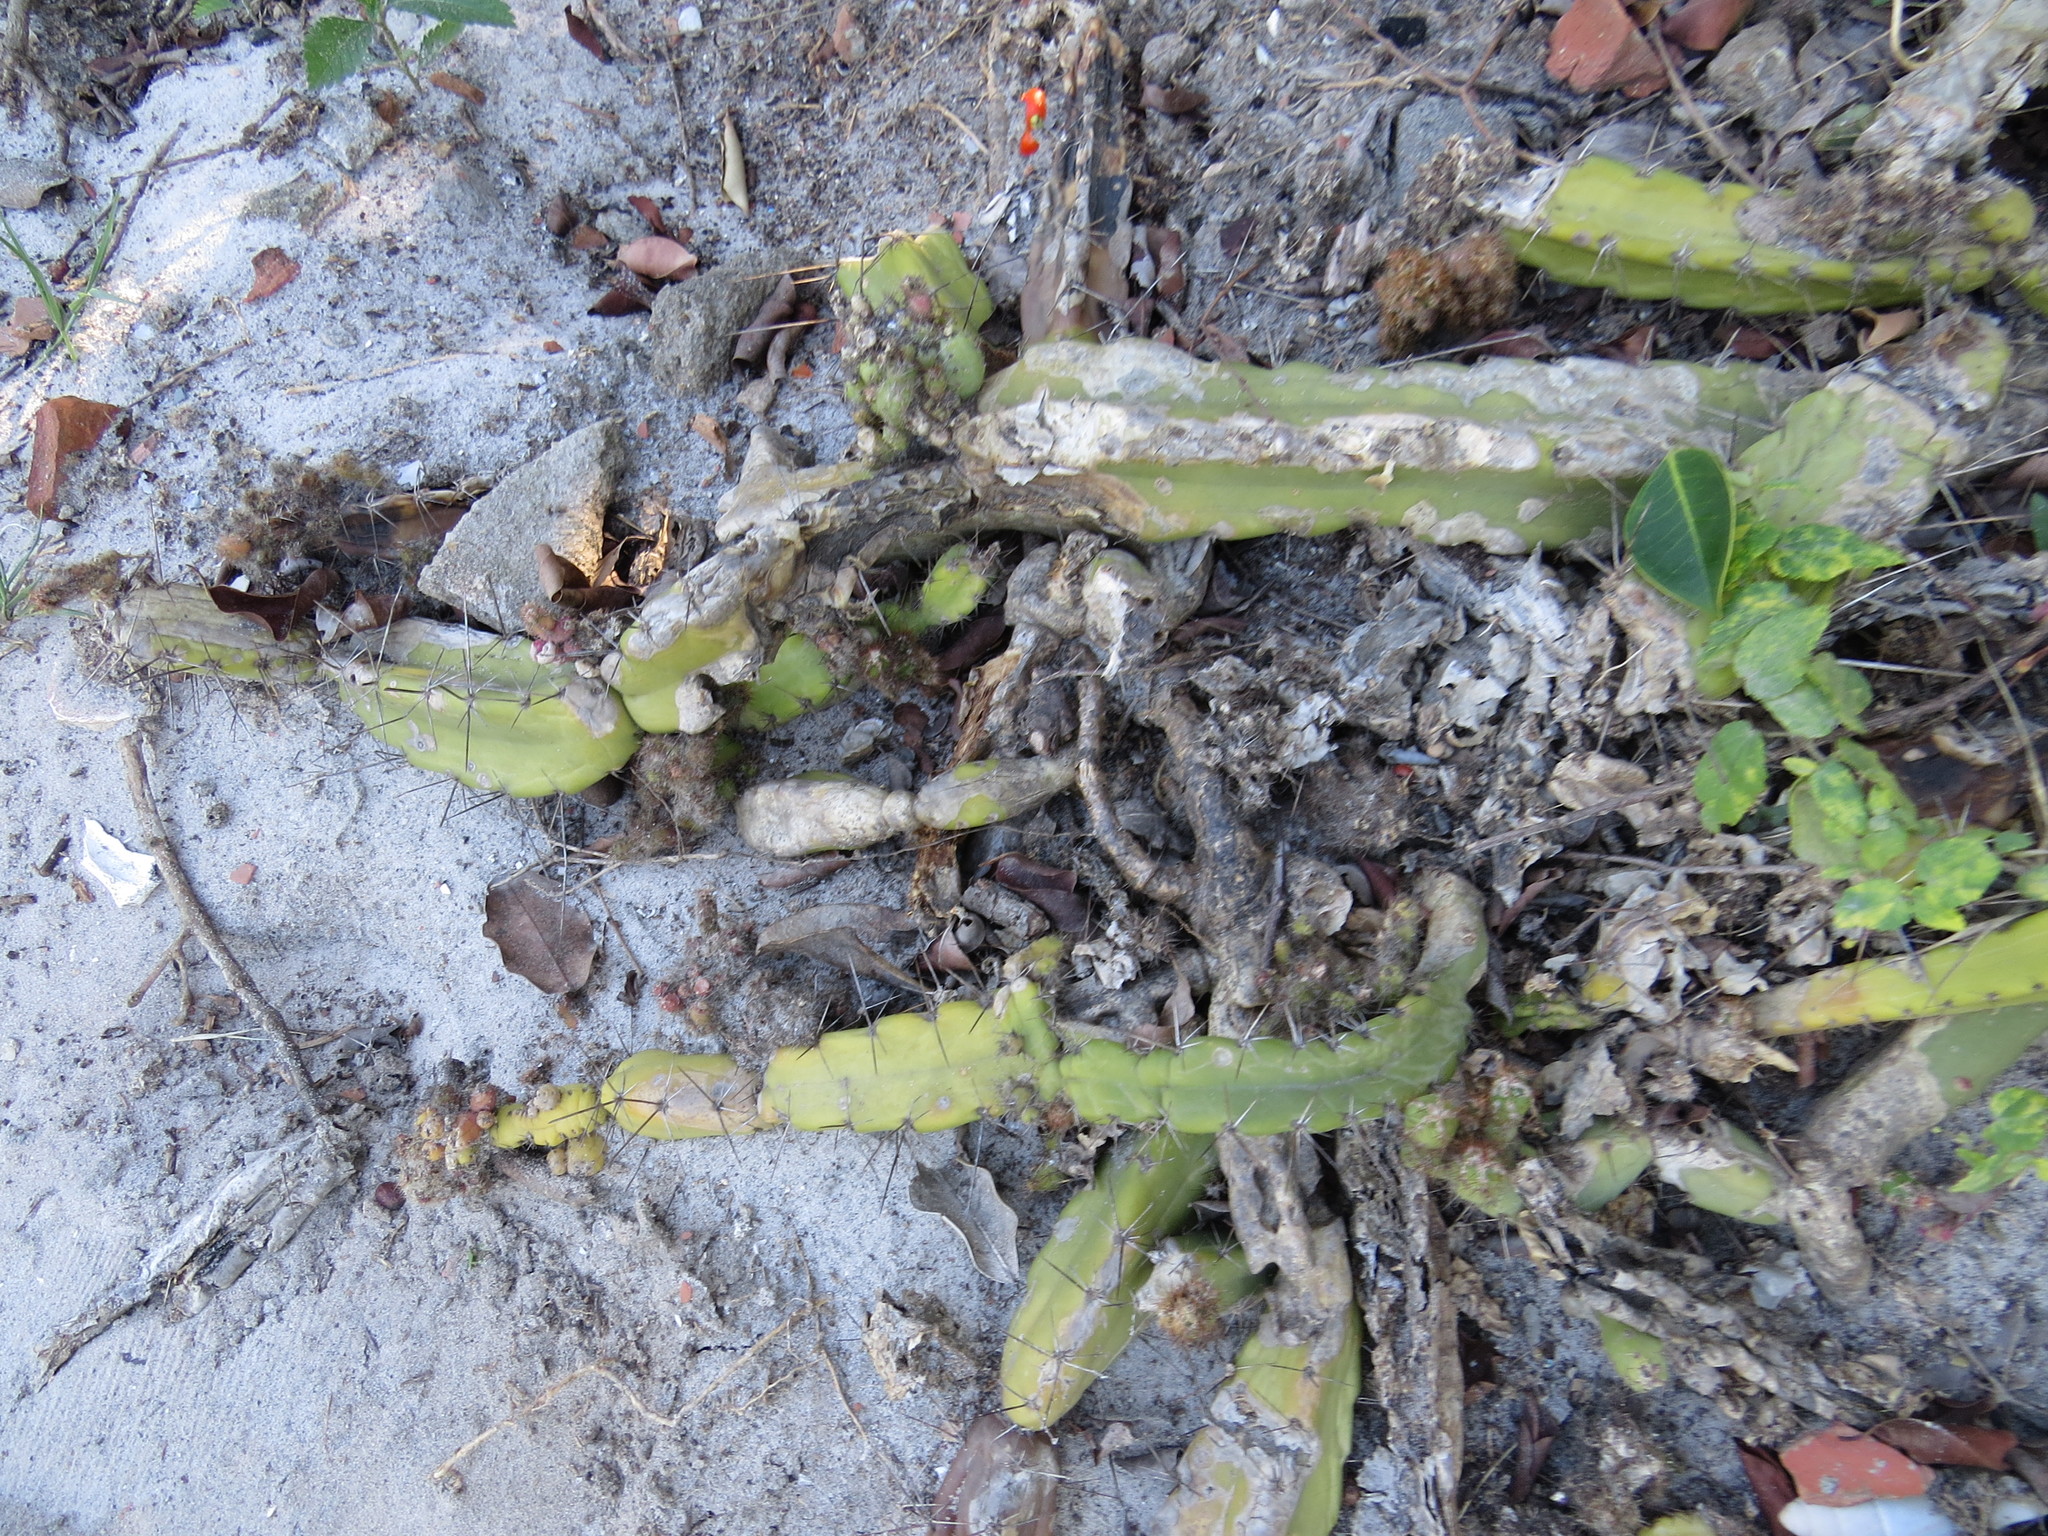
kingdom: Plantae
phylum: Tracheophyta
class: Magnoliopsida
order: Caryophyllales
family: Cactaceae
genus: Cereus
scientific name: Cereus fernambucensis
